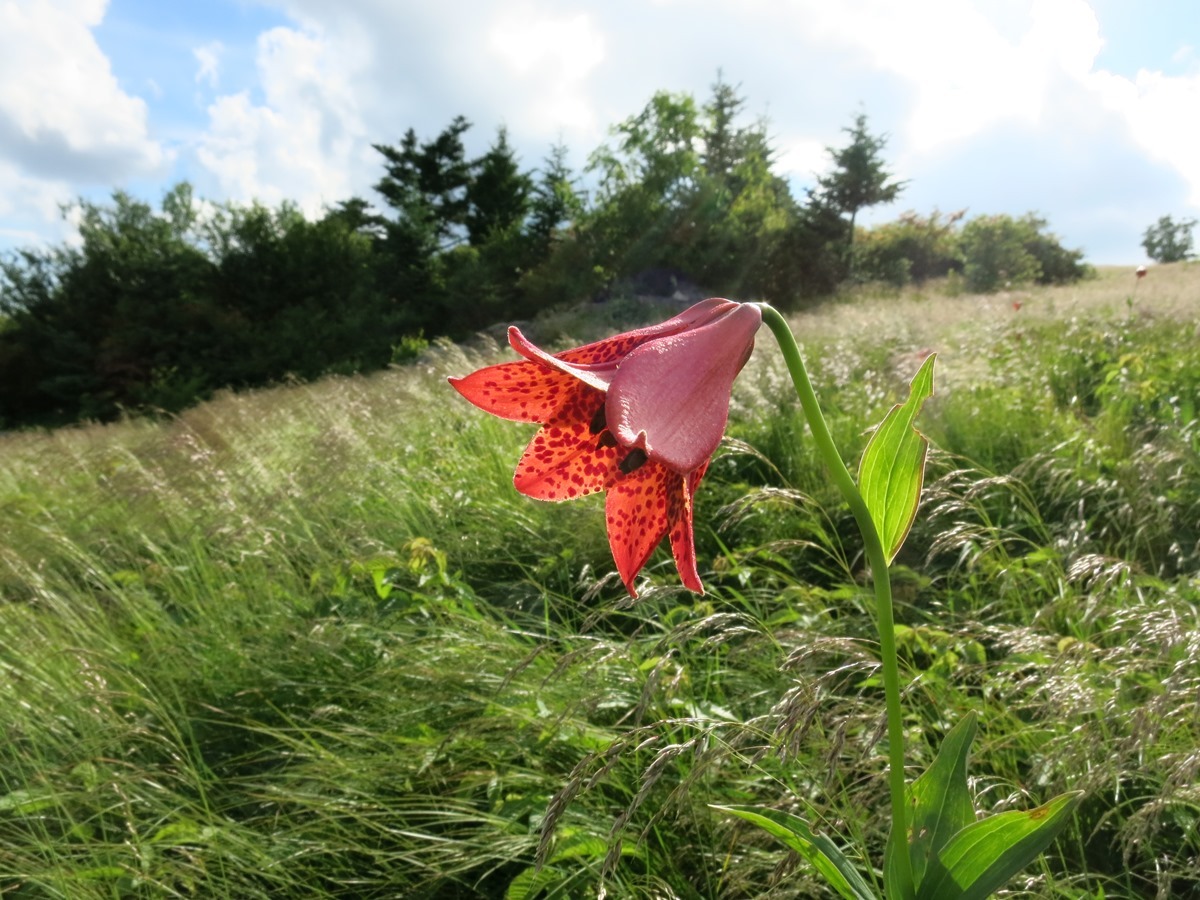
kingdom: Plantae
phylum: Tracheophyta
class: Liliopsida
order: Liliales
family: Liliaceae
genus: Lilium
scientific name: Lilium grayi
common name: Gray's lily
